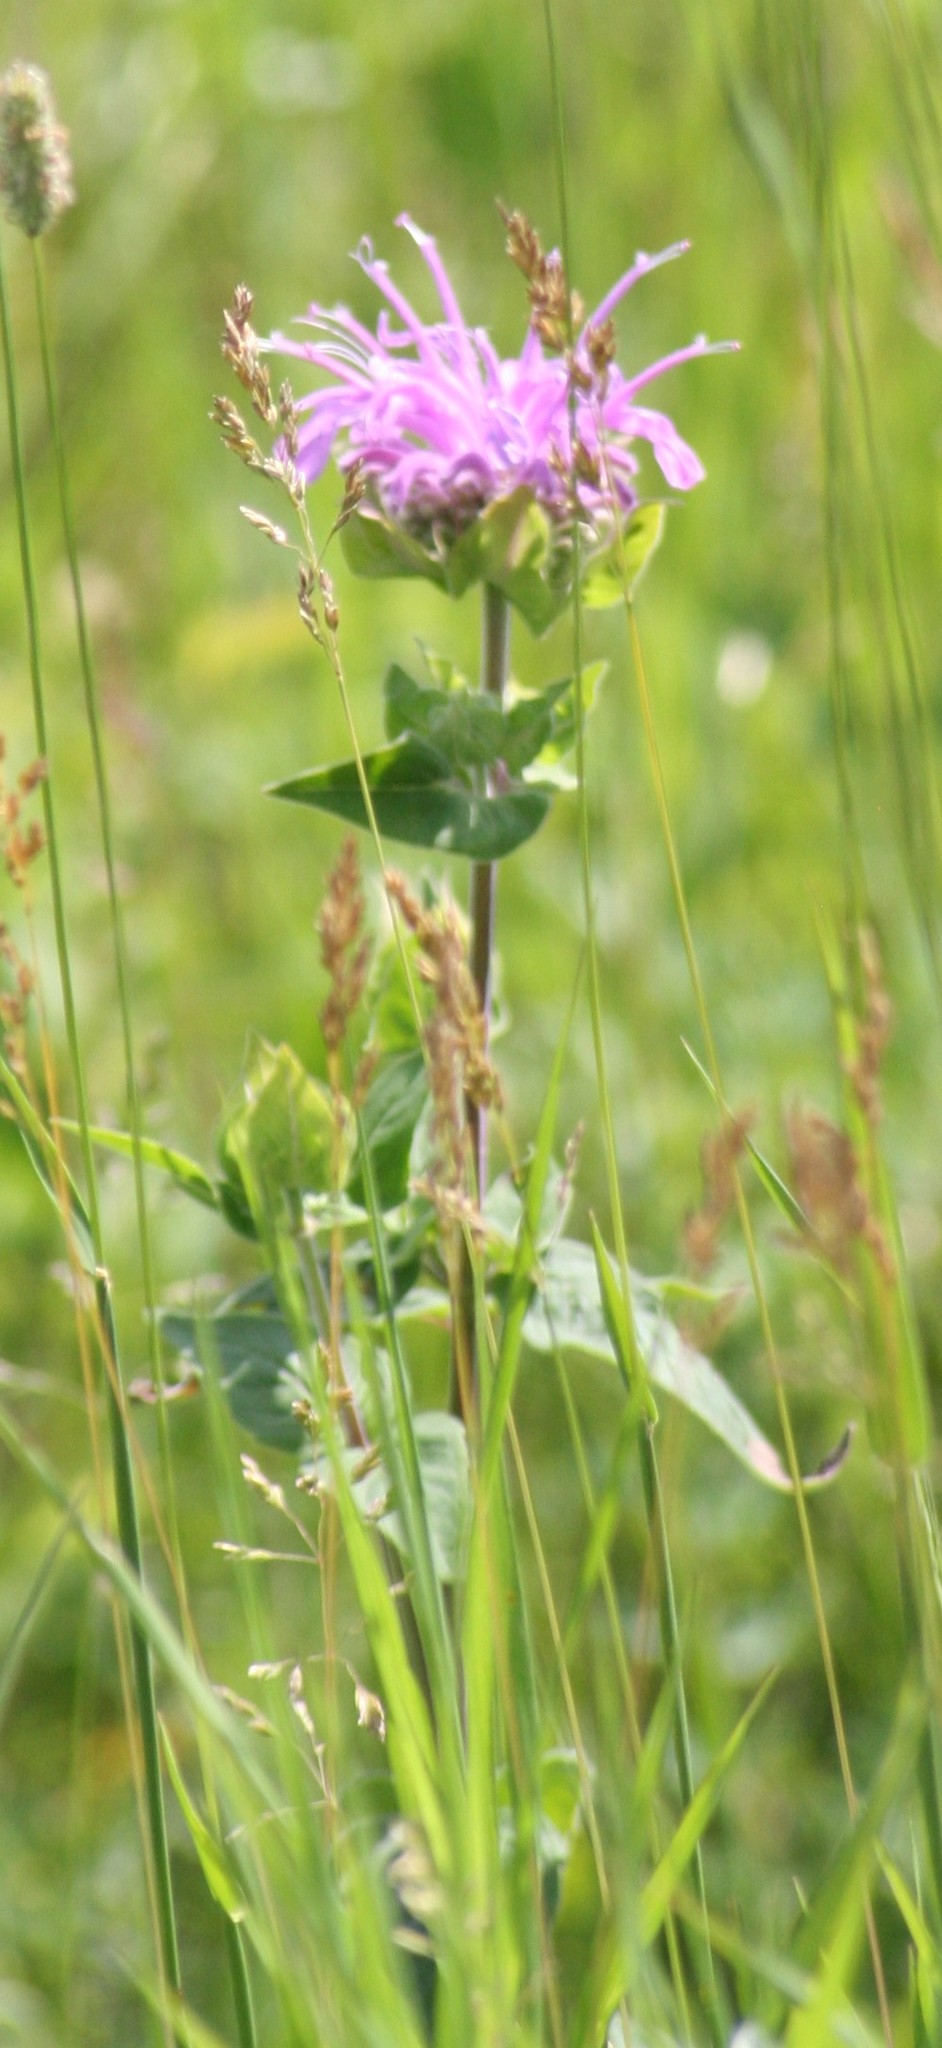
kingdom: Plantae
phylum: Tracheophyta
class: Magnoliopsida
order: Lamiales
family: Lamiaceae
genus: Monarda
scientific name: Monarda fistulosa
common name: Purple beebalm
